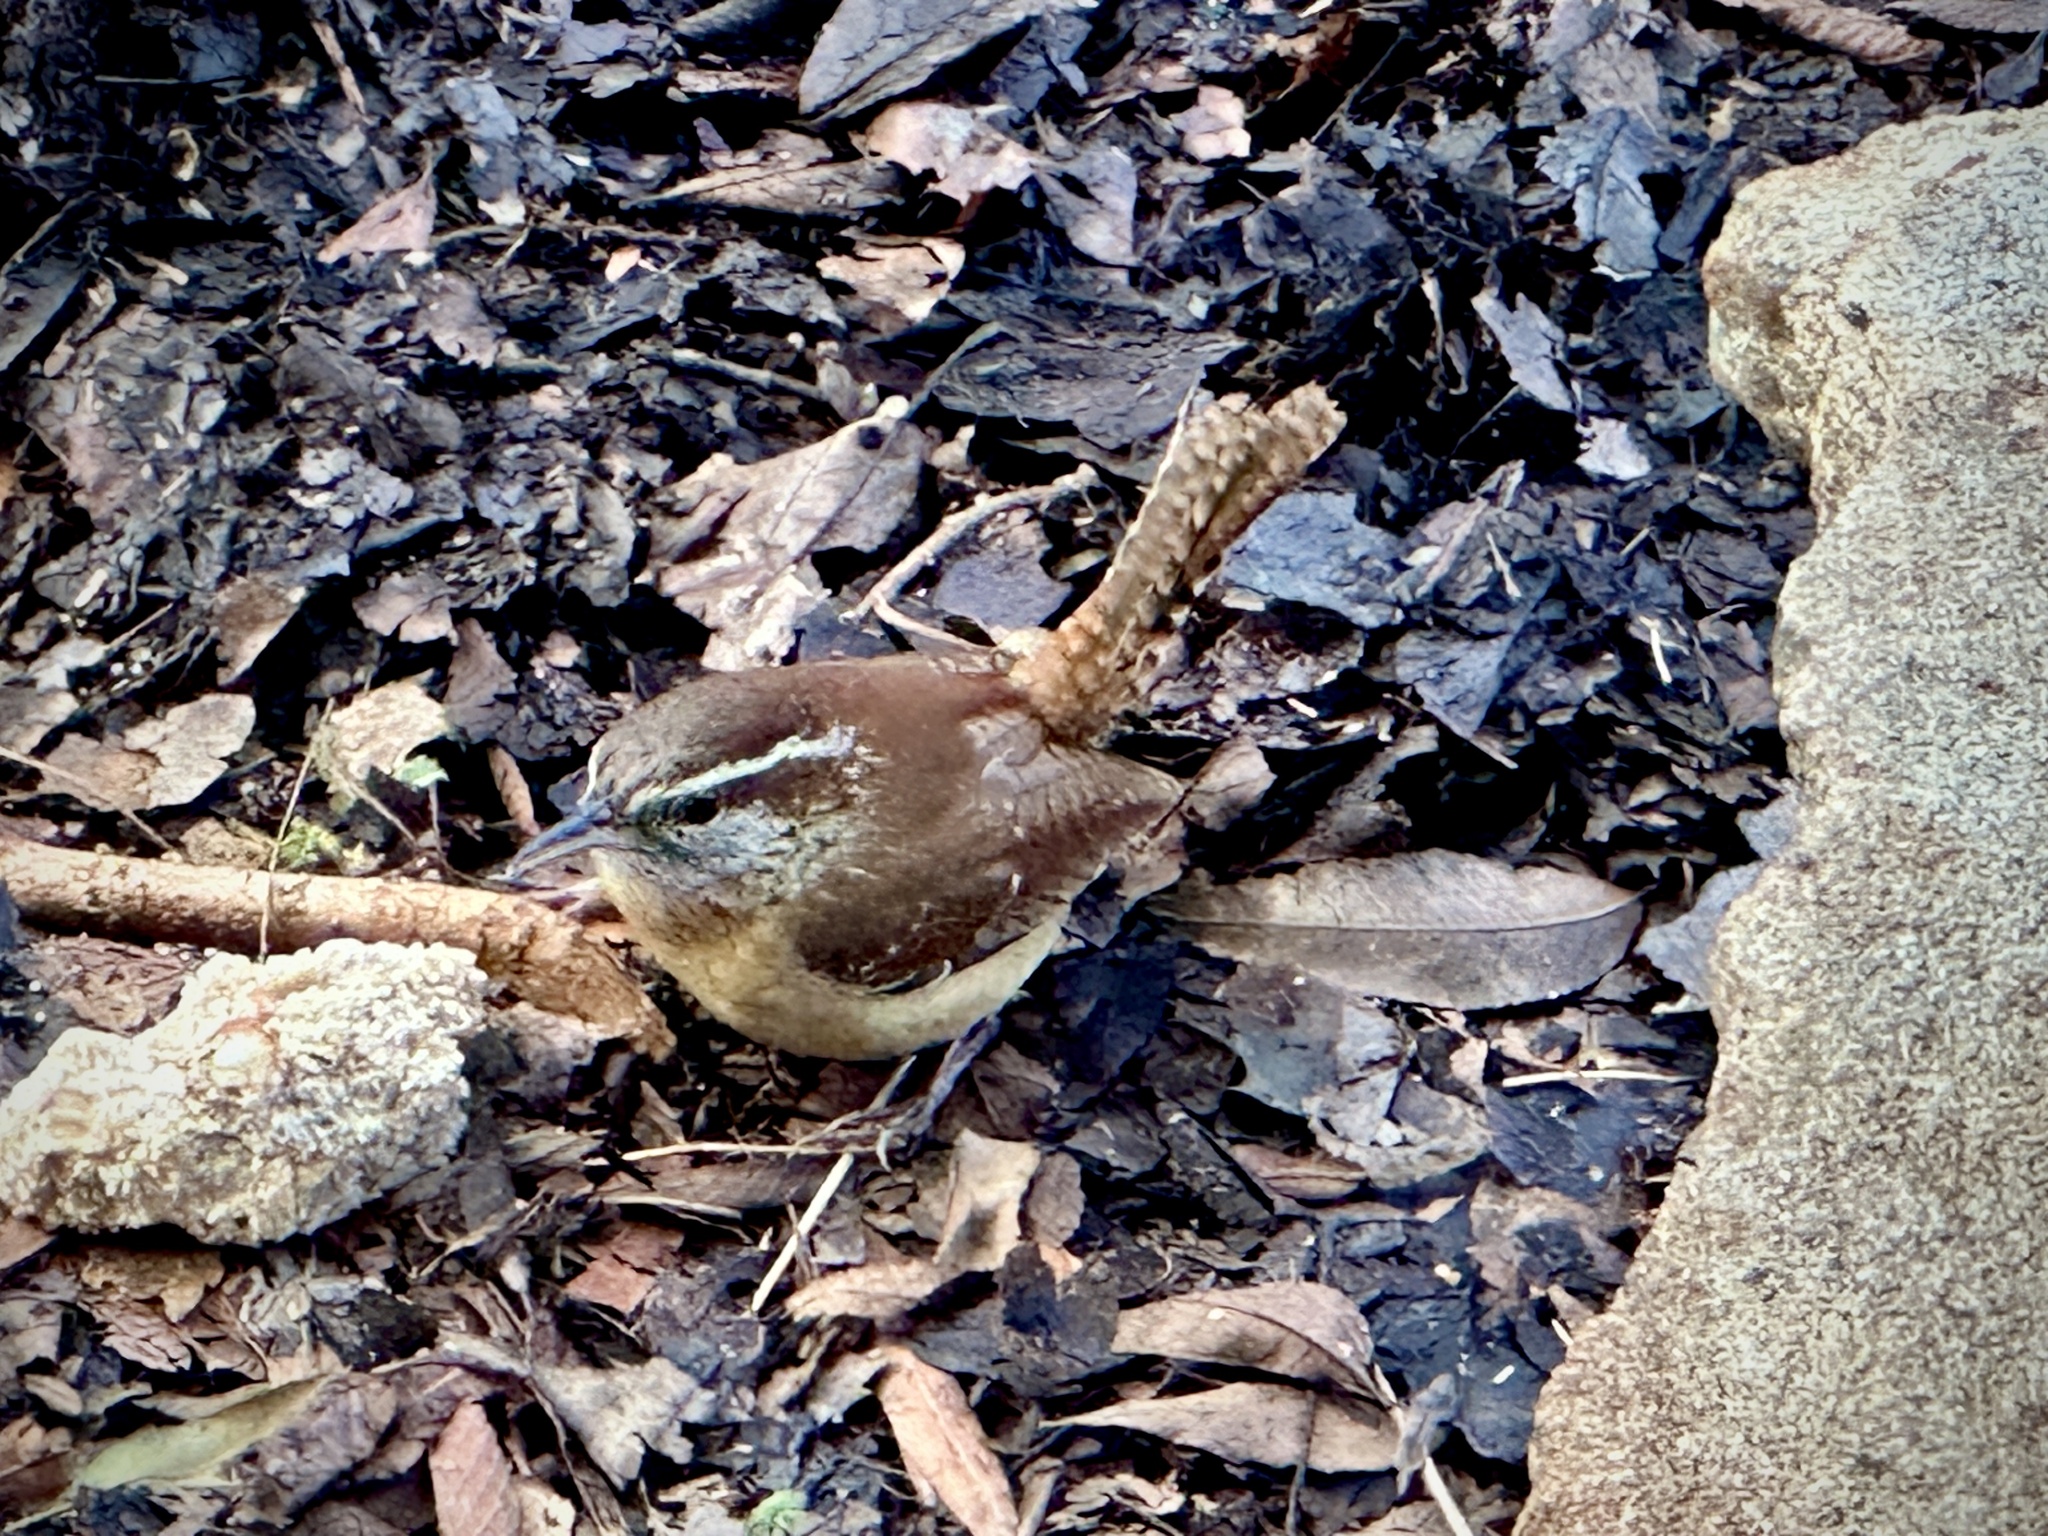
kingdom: Animalia
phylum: Chordata
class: Aves
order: Passeriformes
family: Troglodytidae
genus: Thryothorus
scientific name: Thryothorus ludovicianus
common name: Carolina wren
